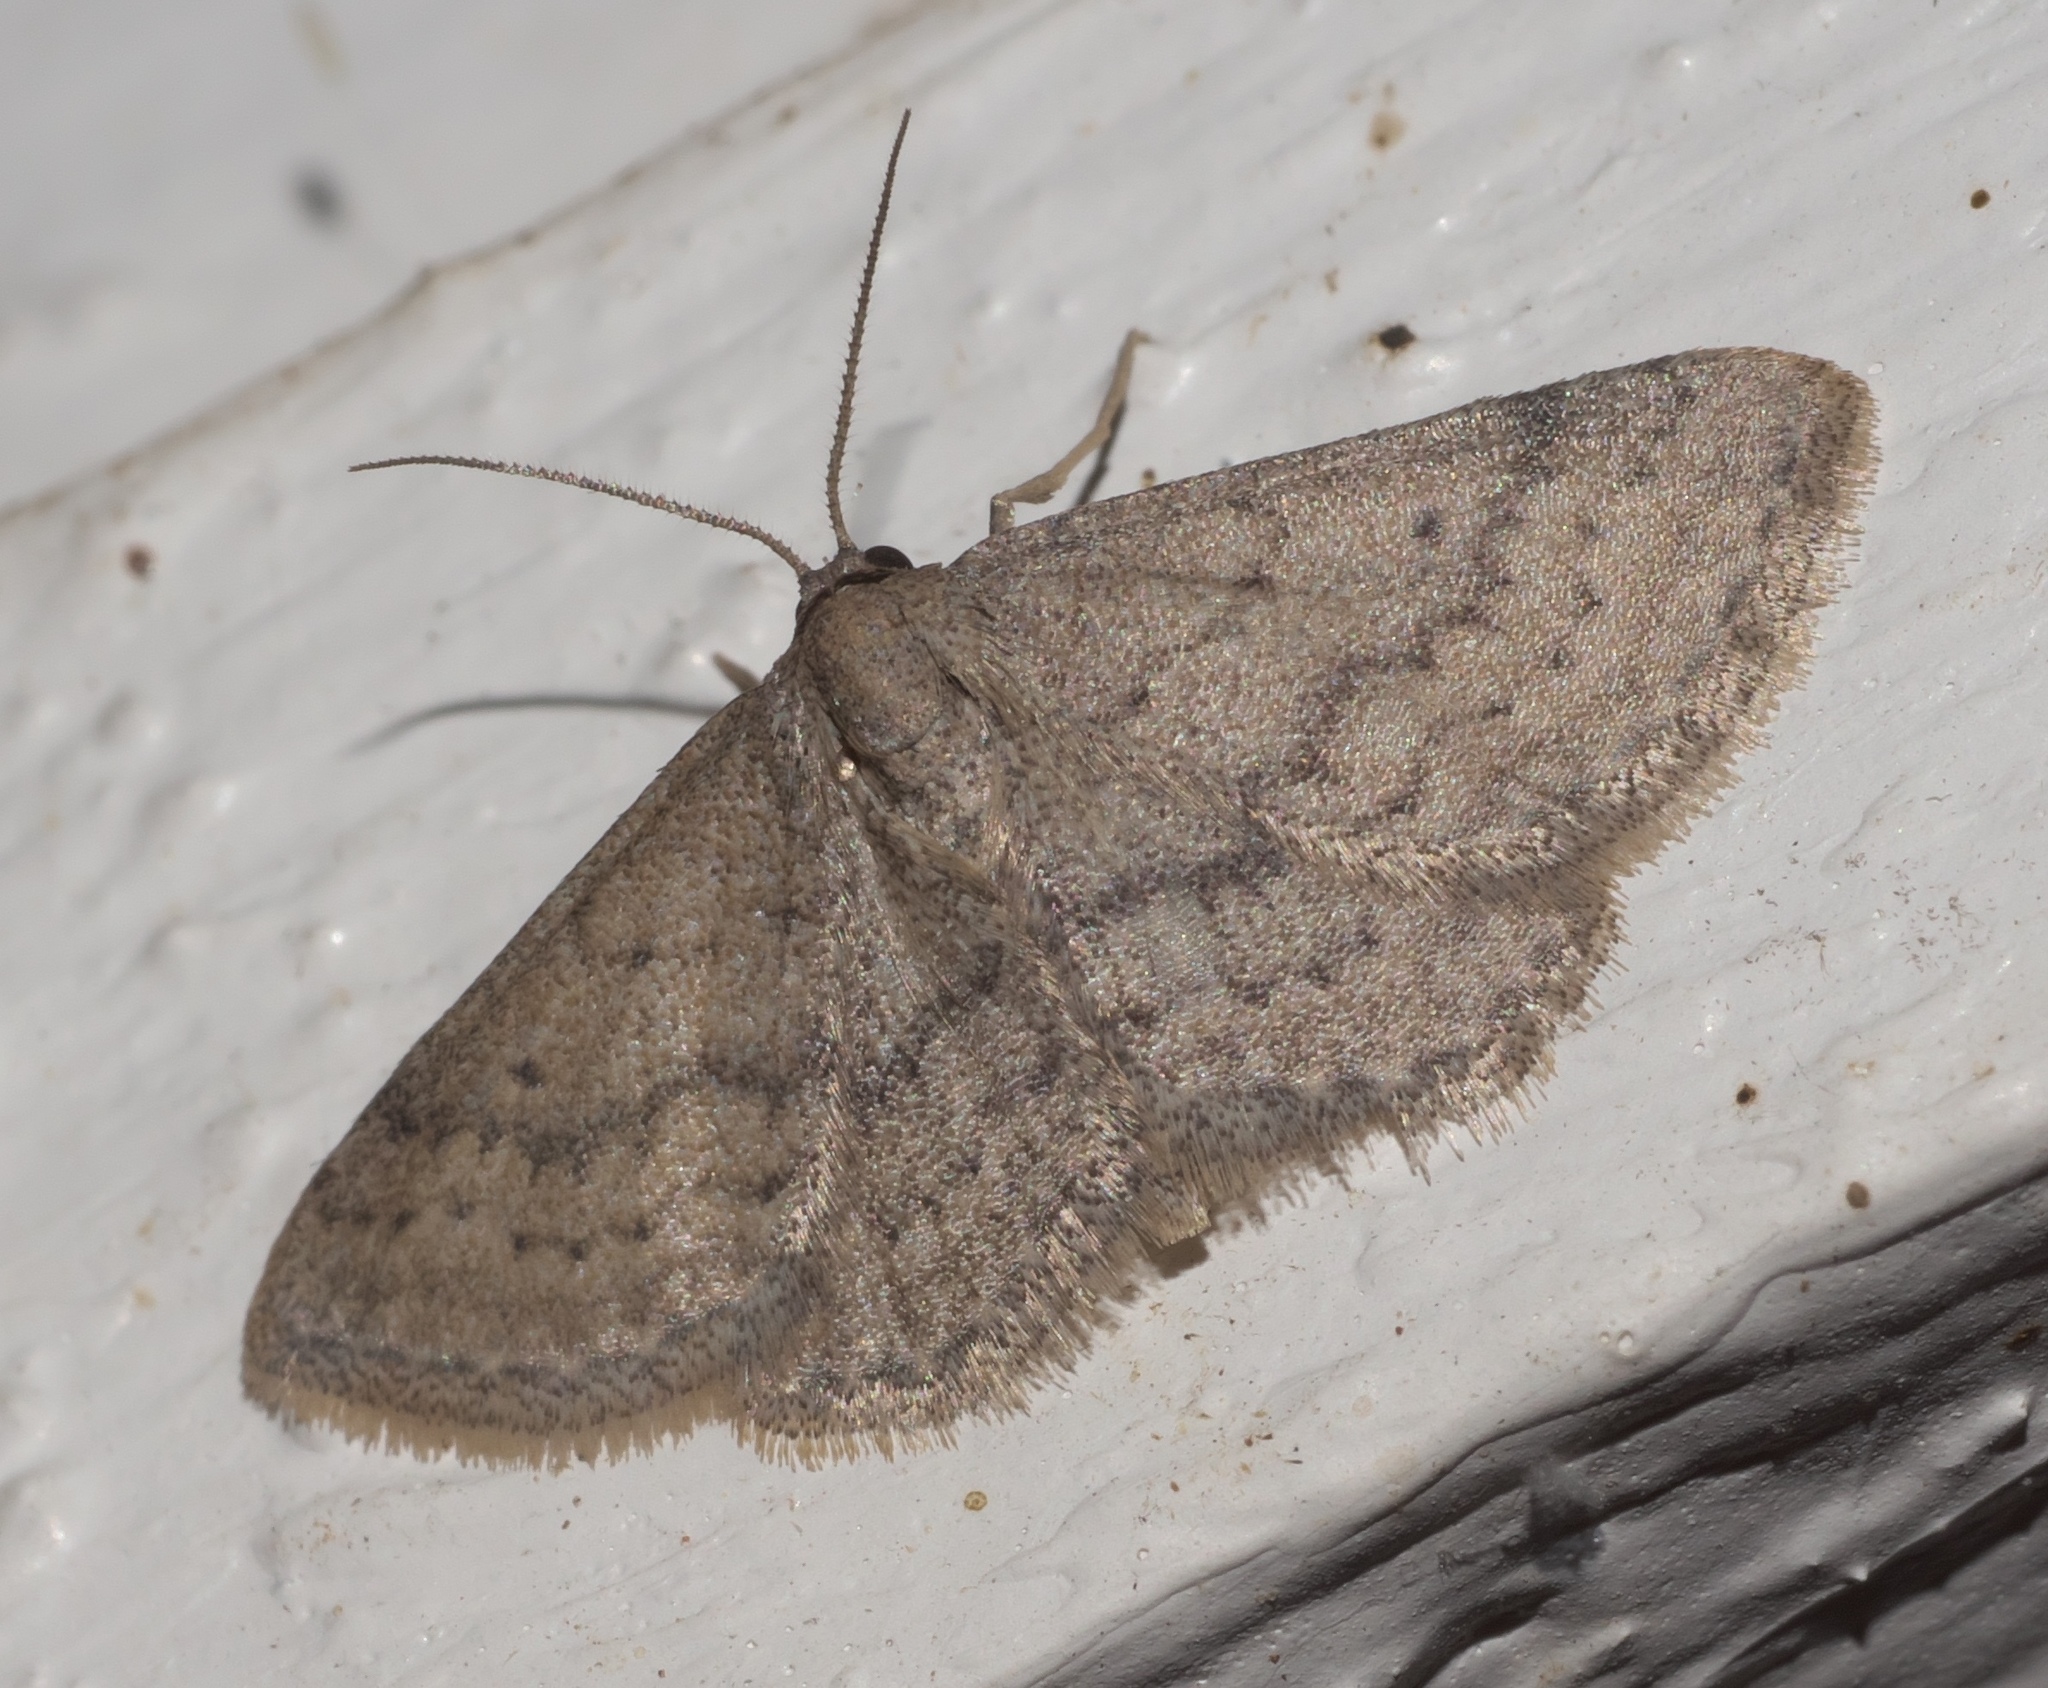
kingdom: Animalia
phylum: Arthropoda
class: Insecta
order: Lepidoptera
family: Geometridae
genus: Lobocleta
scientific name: Lobocleta ossularia
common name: Drab brown wave
